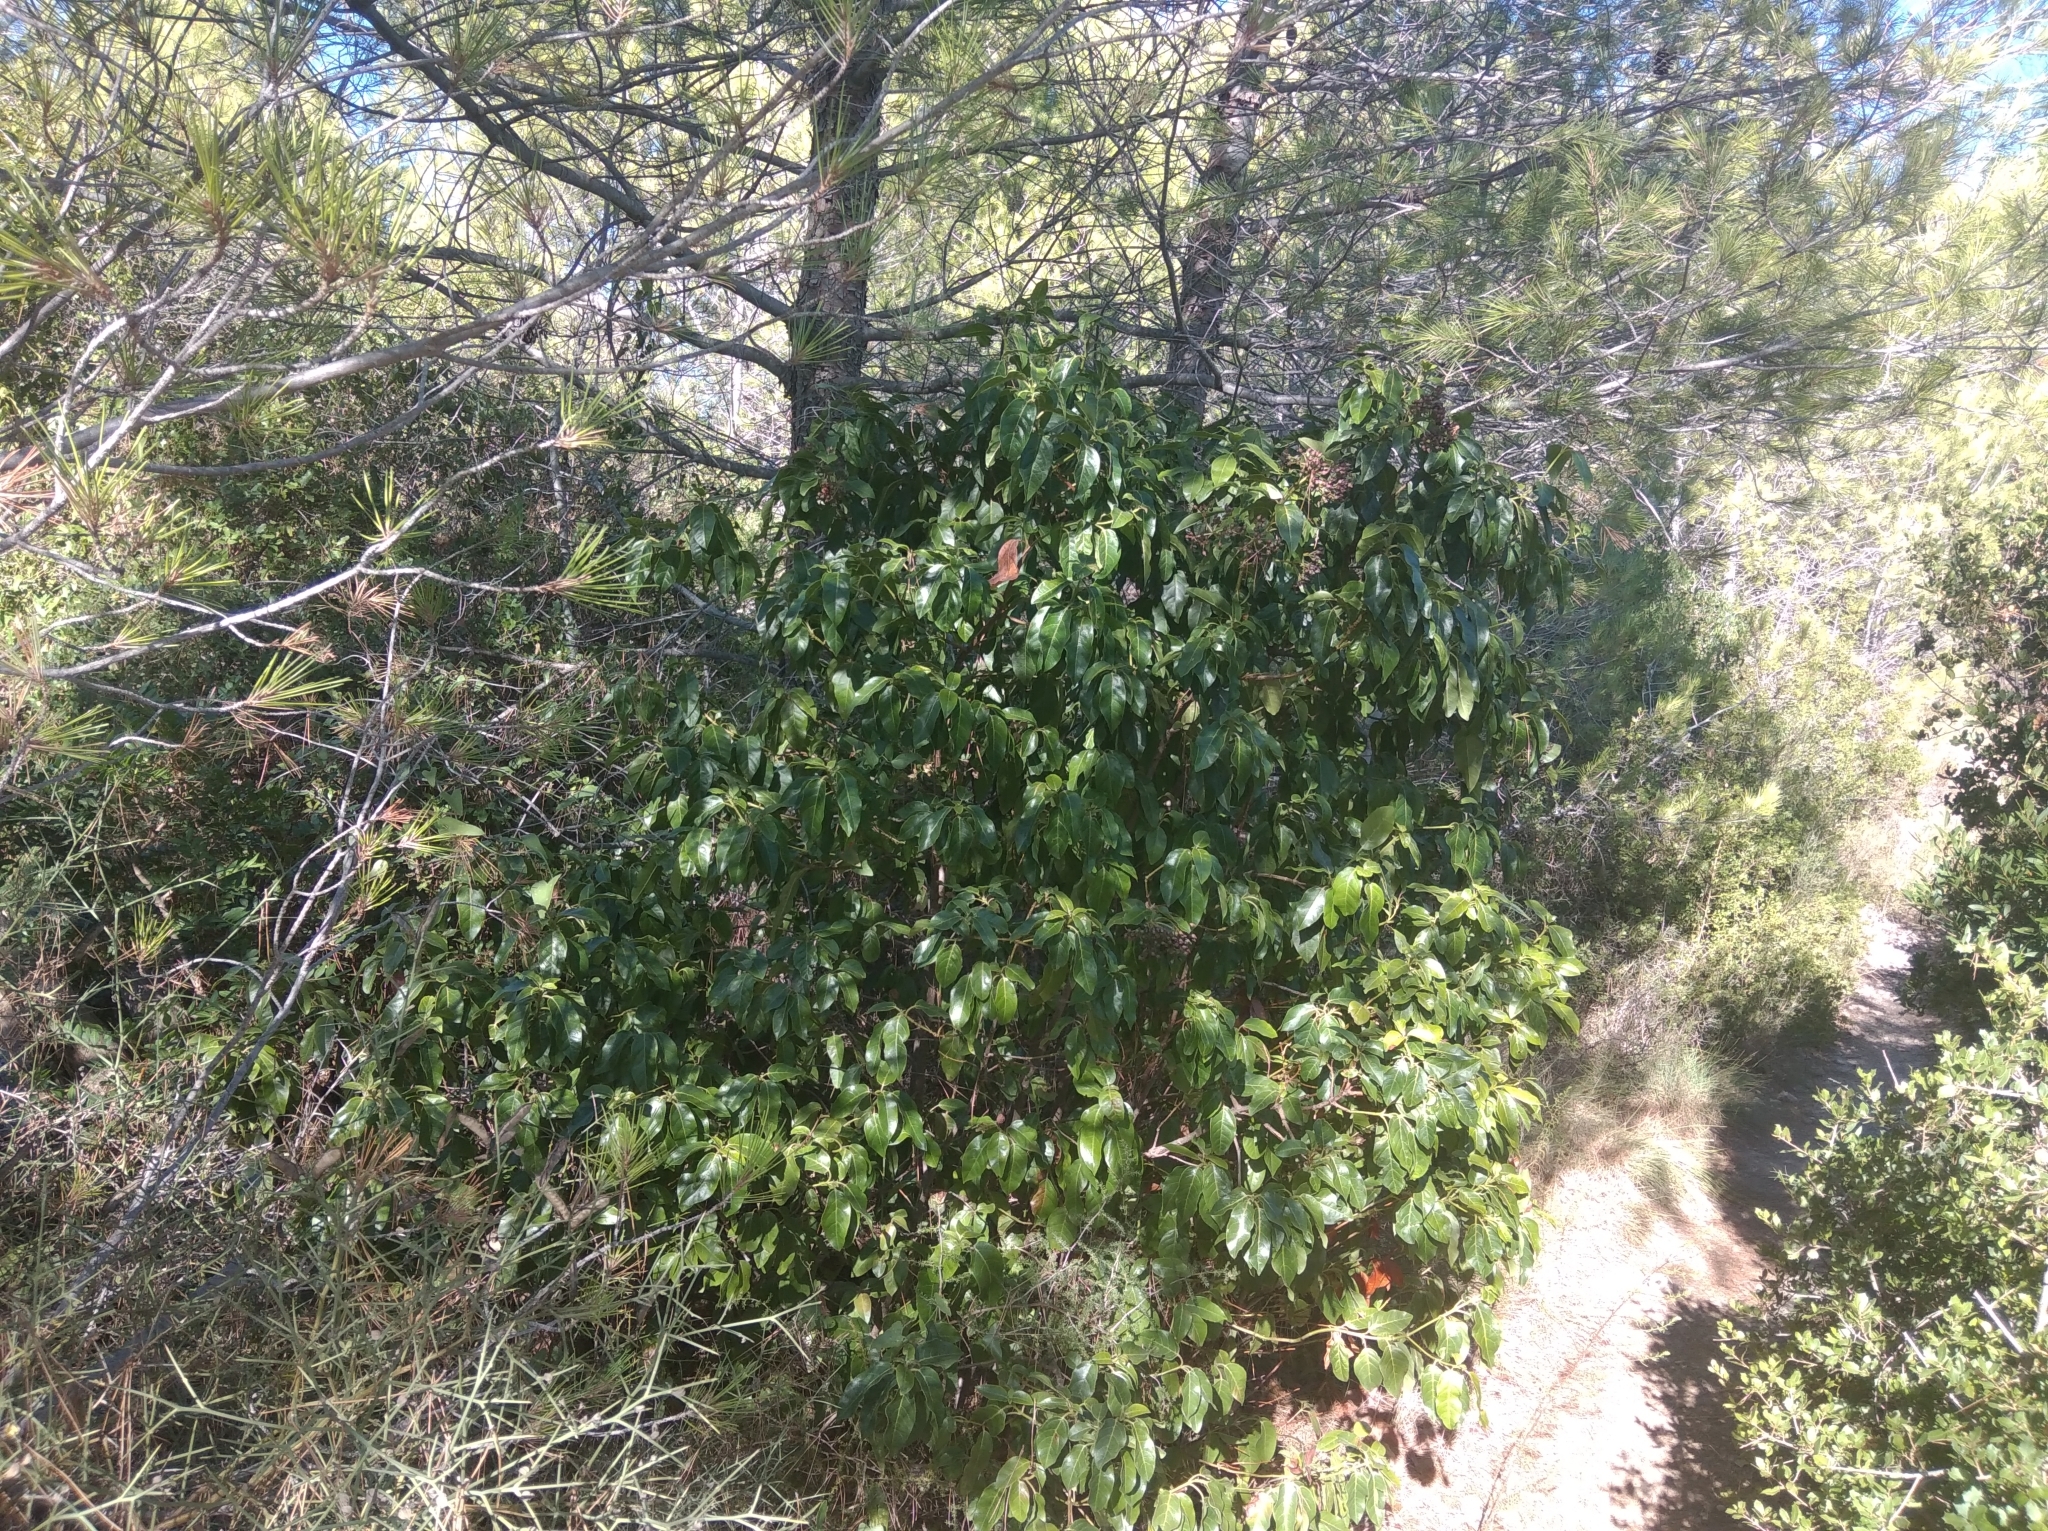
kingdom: Plantae
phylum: Tracheophyta
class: Magnoliopsida
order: Dipsacales
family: Viburnaceae
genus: Viburnum
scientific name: Viburnum tinus
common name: Laurustinus
